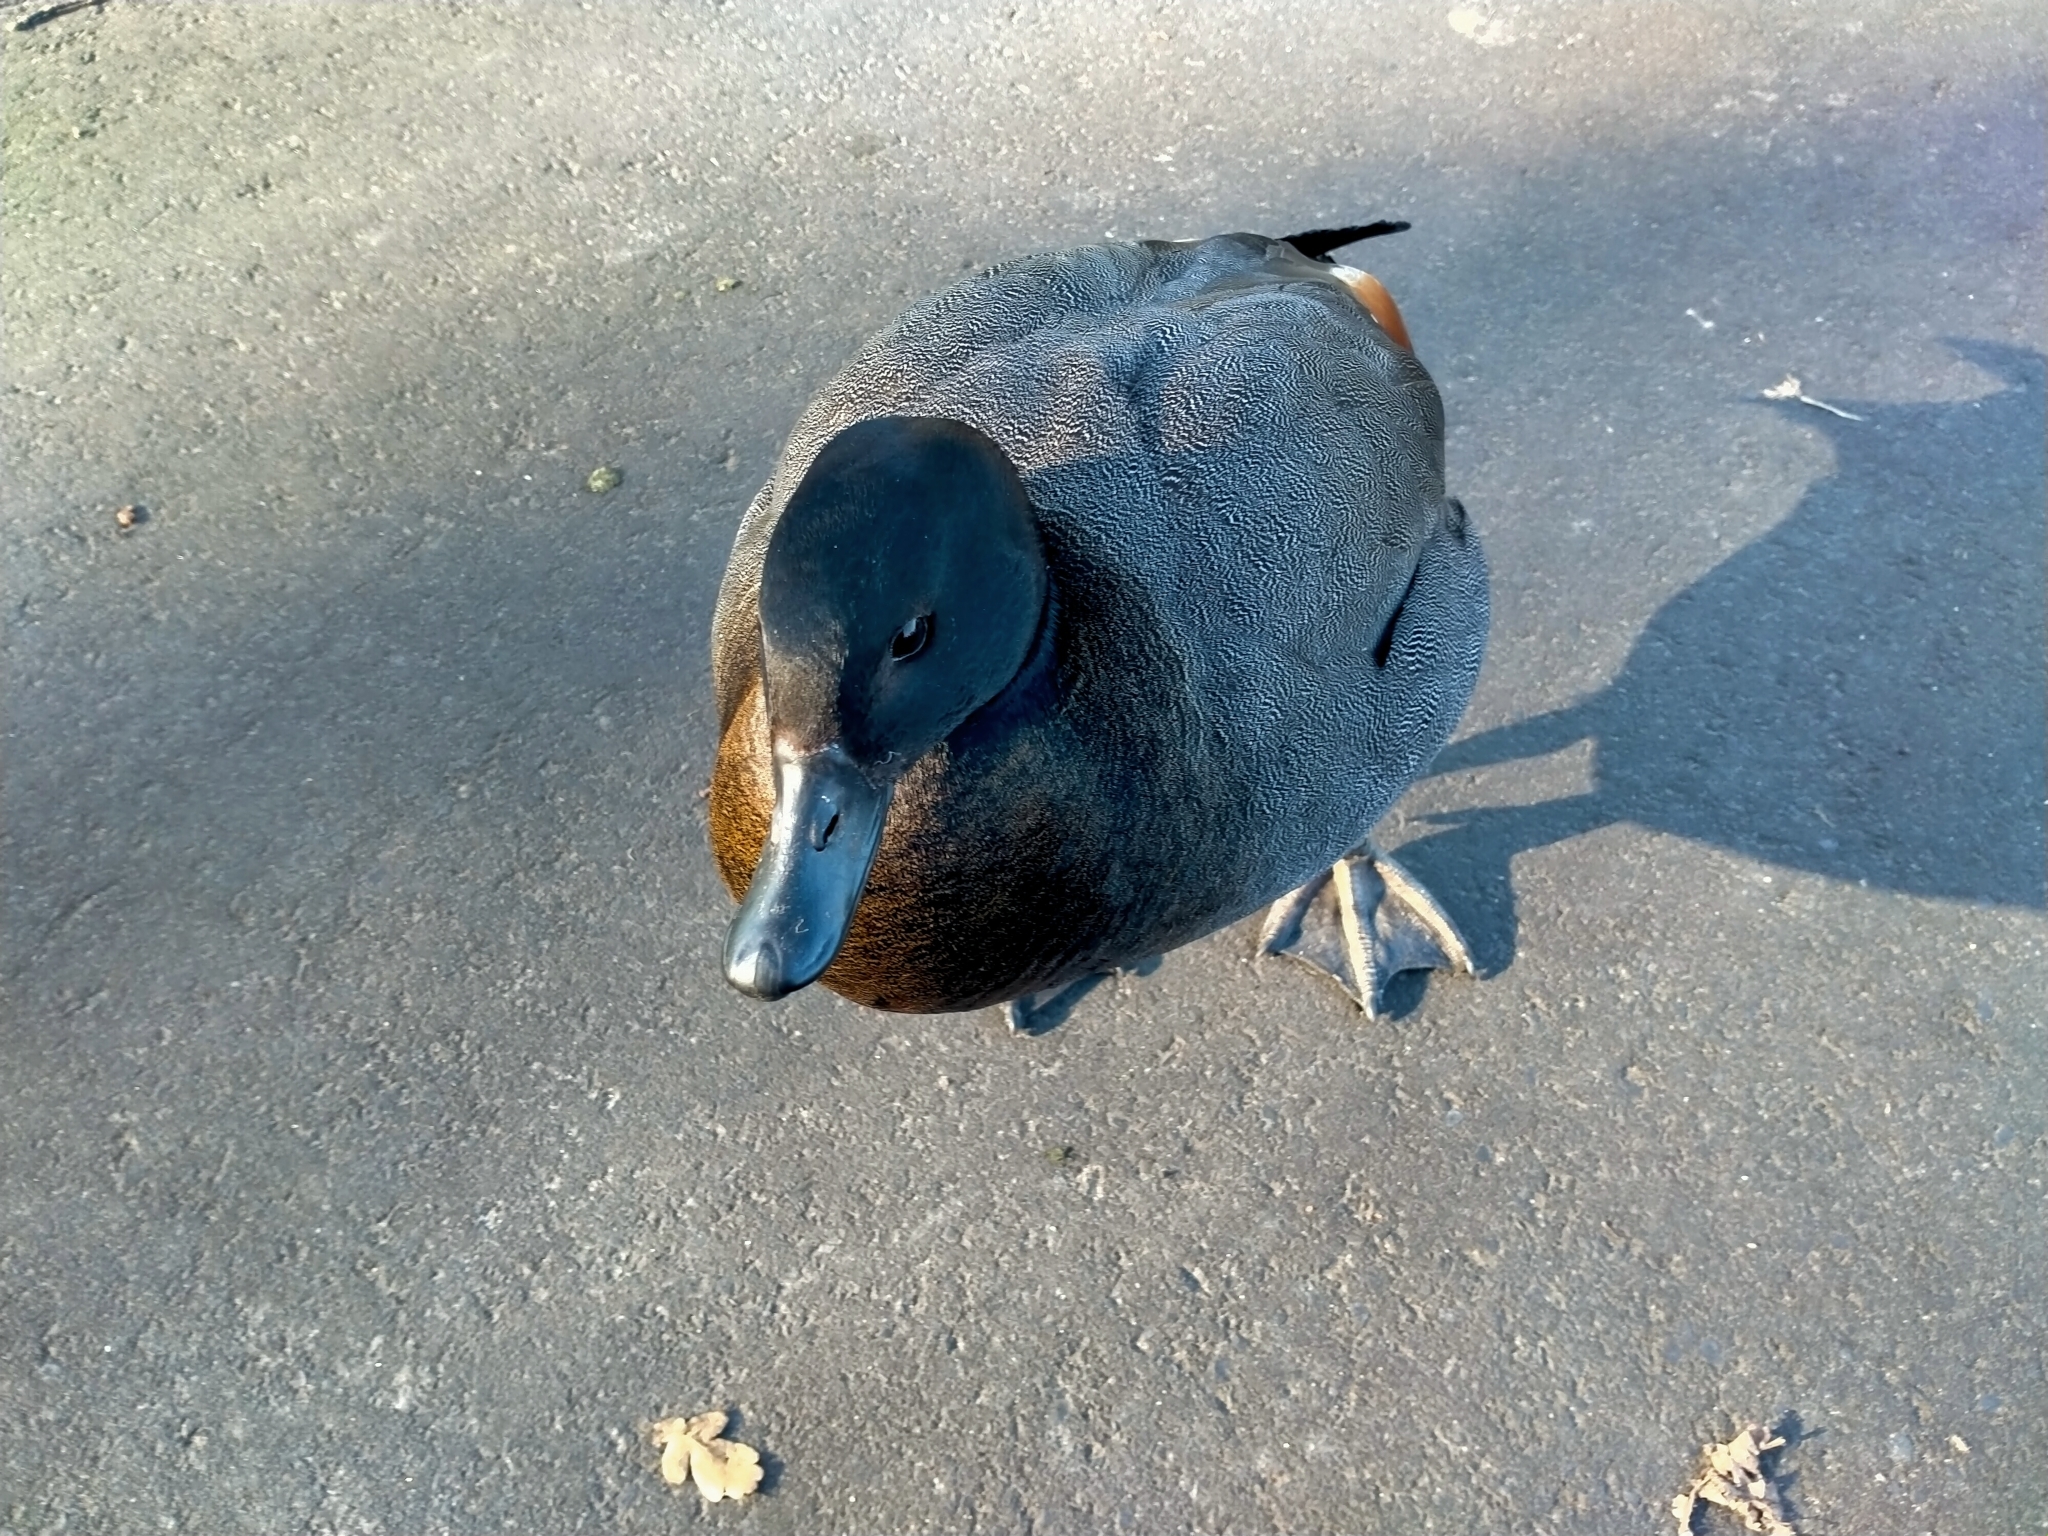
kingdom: Animalia
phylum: Chordata
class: Aves
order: Anseriformes
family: Anatidae
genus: Tadorna
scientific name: Tadorna variegata
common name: Paradise shelduck
